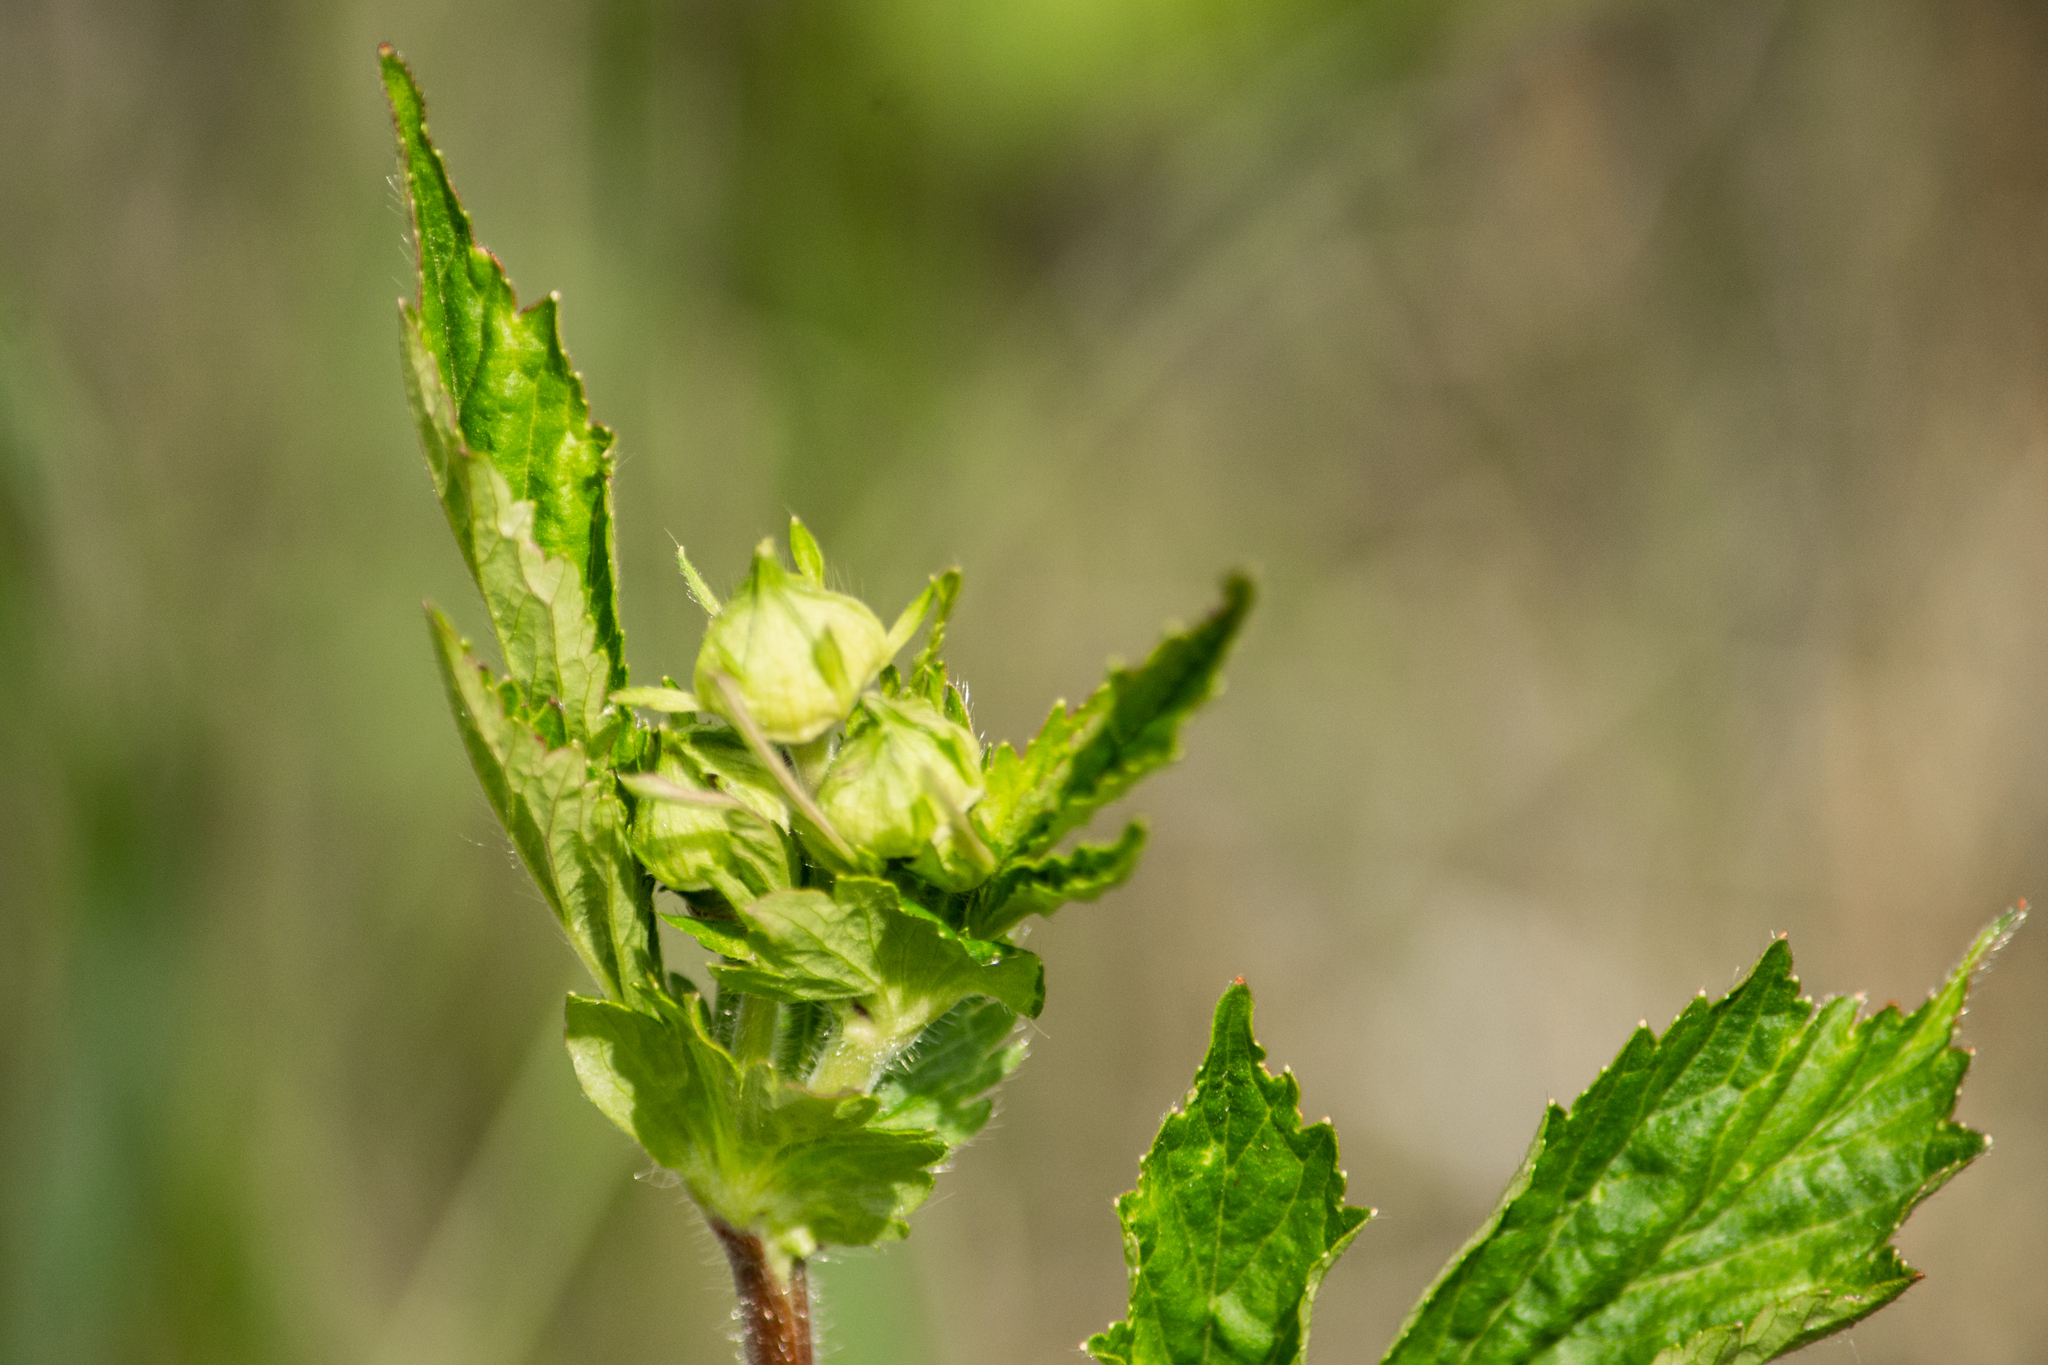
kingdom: Plantae
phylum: Tracheophyta
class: Magnoliopsida
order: Rosales
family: Rosaceae
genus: Geum
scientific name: Geum aleppicum
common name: Yellow avens
